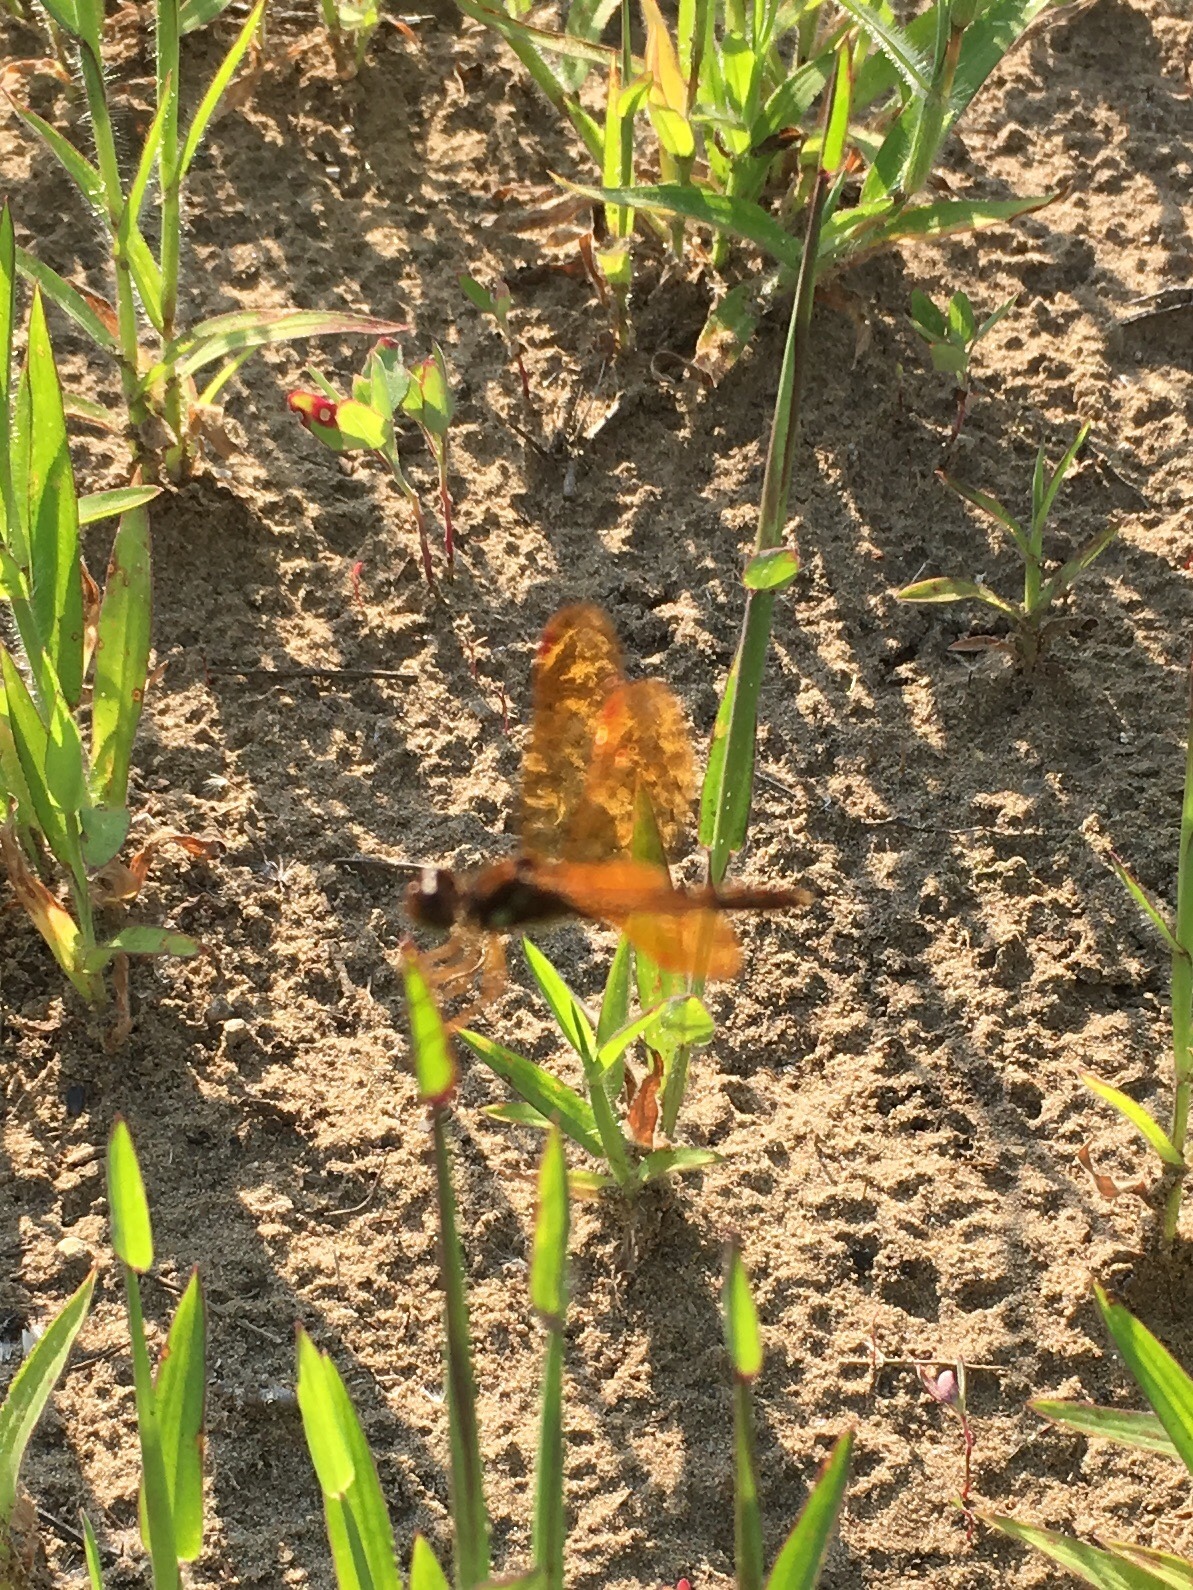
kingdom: Animalia
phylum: Arthropoda
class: Insecta
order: Odonata
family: Libellulidae
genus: Perithemis
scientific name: Perithemis tenera
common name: Eastern amberwing
